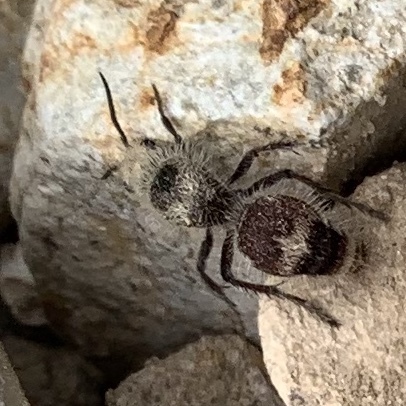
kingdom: Animalia
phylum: Arthropoda
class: Insecta
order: Hymenoptera
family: Mutillidae
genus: Dasymutilla
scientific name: Dasymutilla
